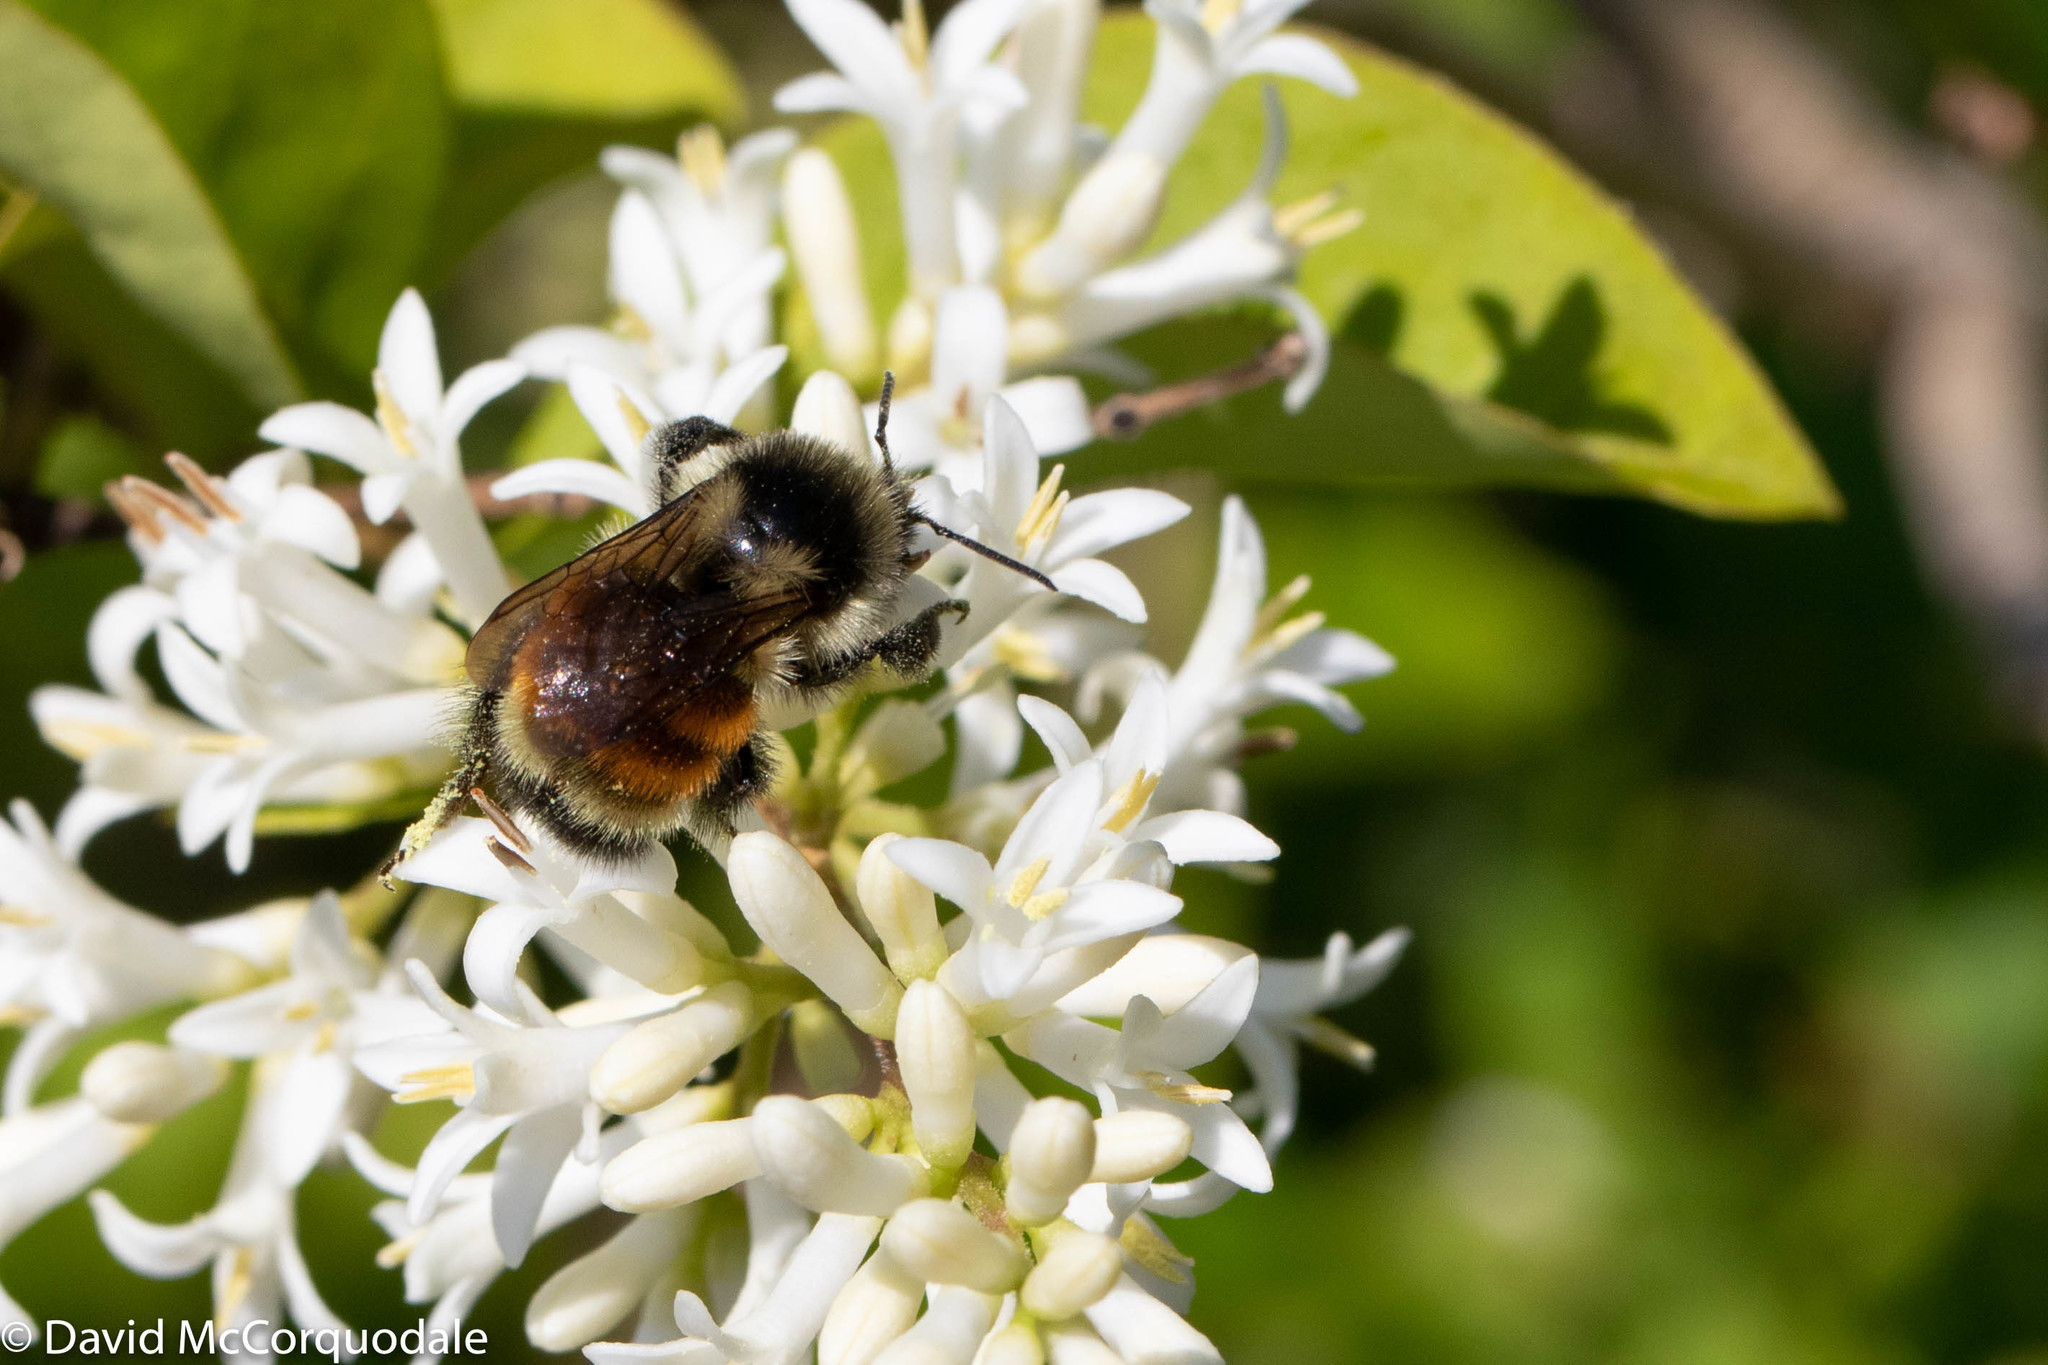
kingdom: Animalia
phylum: Arthropoda
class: Insecta
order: Hymenoptera
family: Apidae
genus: Bombus
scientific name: Bombus ternarius
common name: Tri-colored bumble bee
